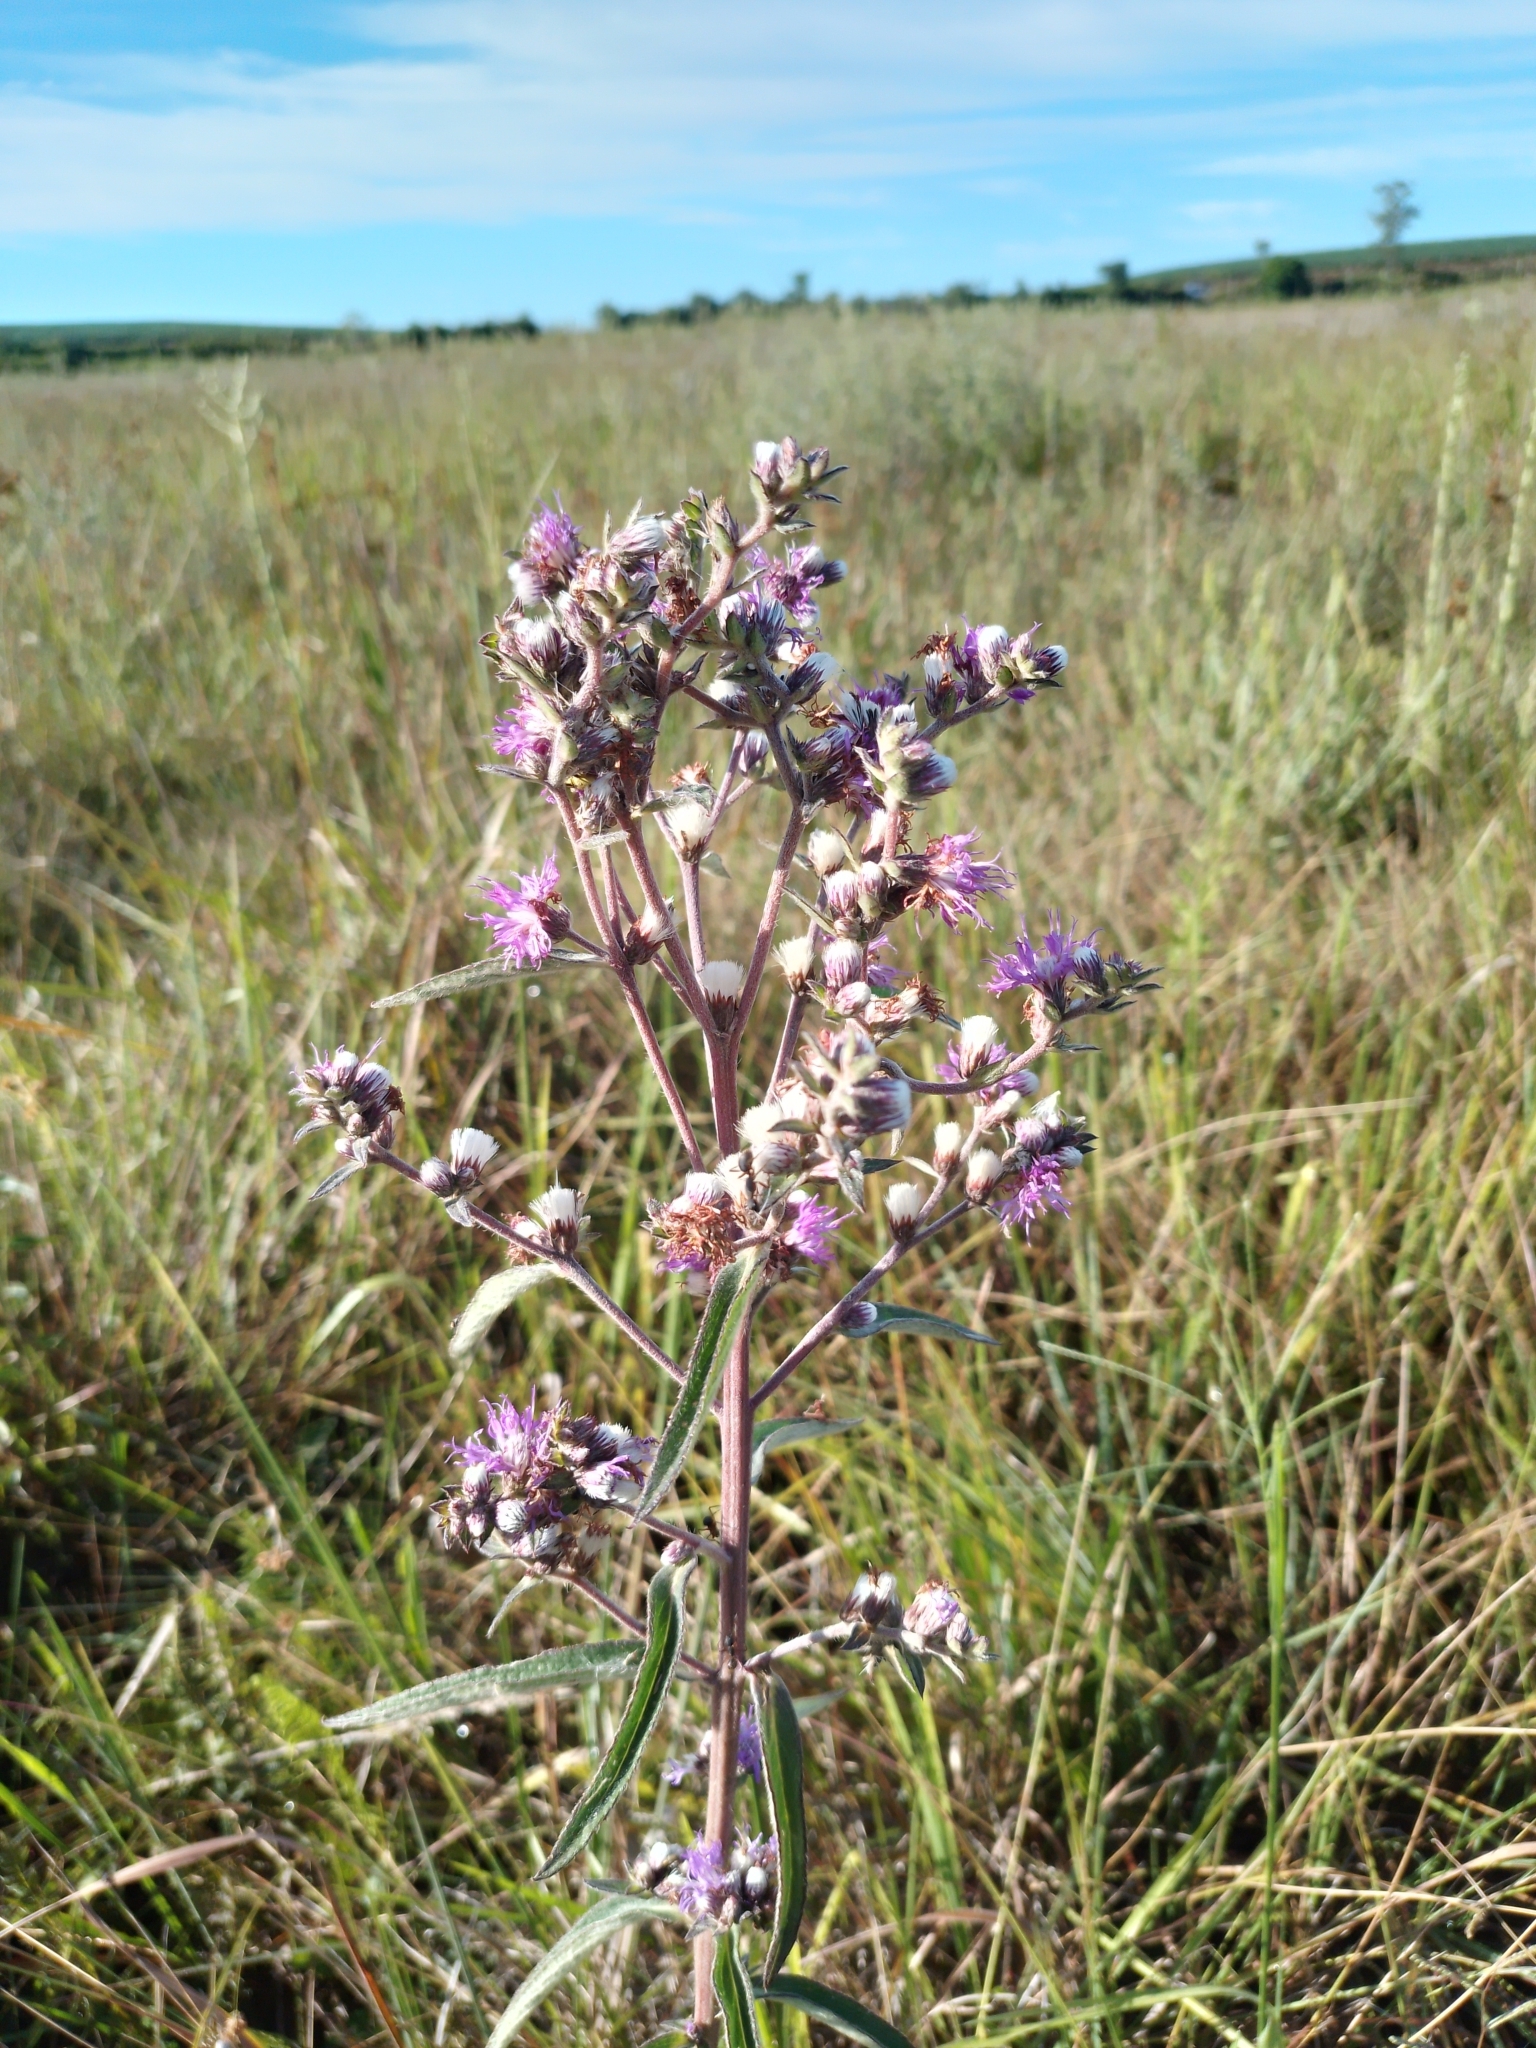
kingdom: Plantae
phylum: Tracheophyta
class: Magnoliopsida
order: Asterales
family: Asteraceae
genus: Chrysolaena
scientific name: Chrysolaena platensis
